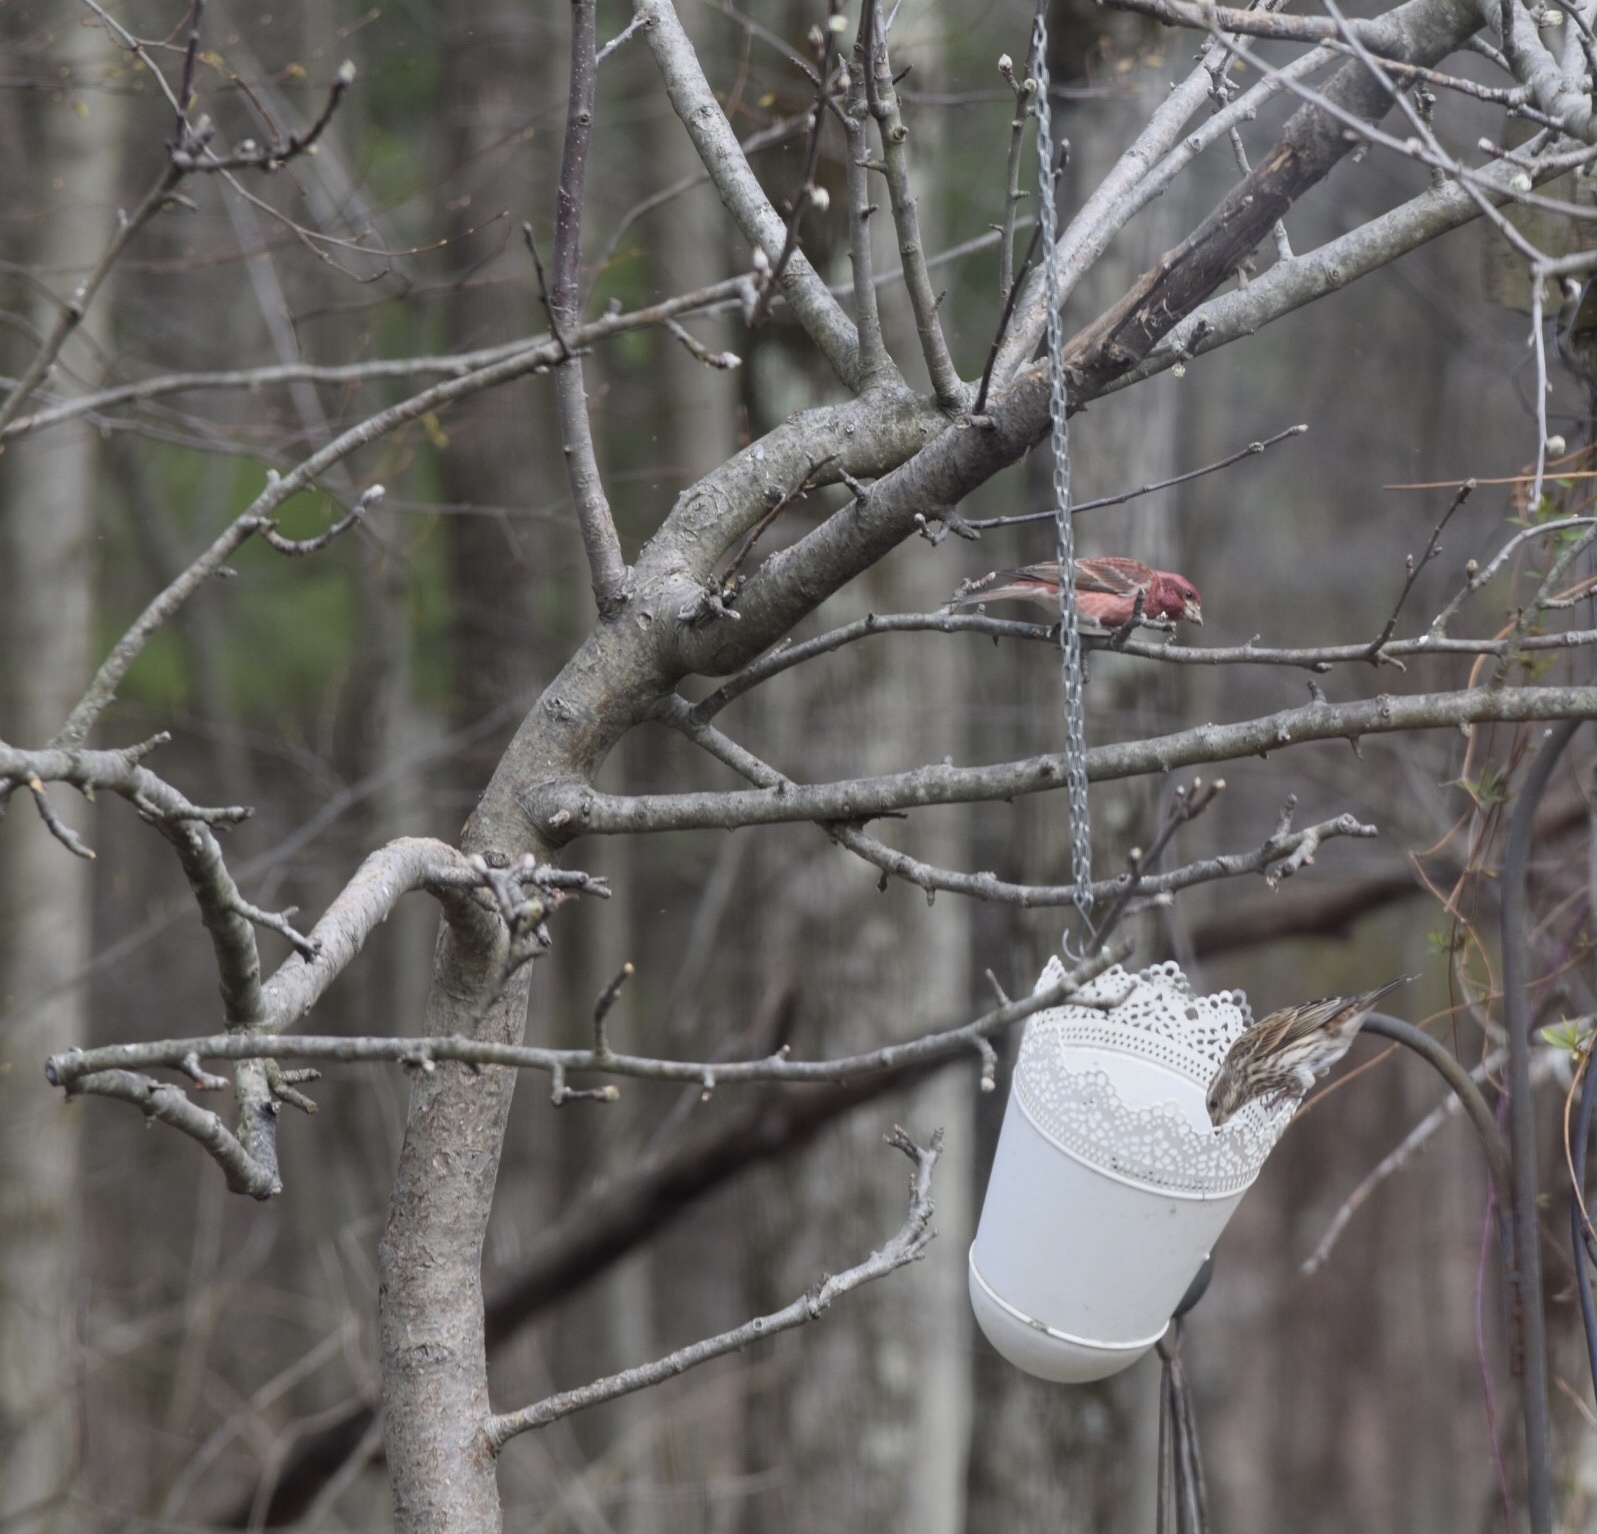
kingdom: Animalia
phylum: Chordata
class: Aves
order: Passeriformes
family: Fringillidae
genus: Haemorhous
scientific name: Haemorhous purpureus
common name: Purple finch
